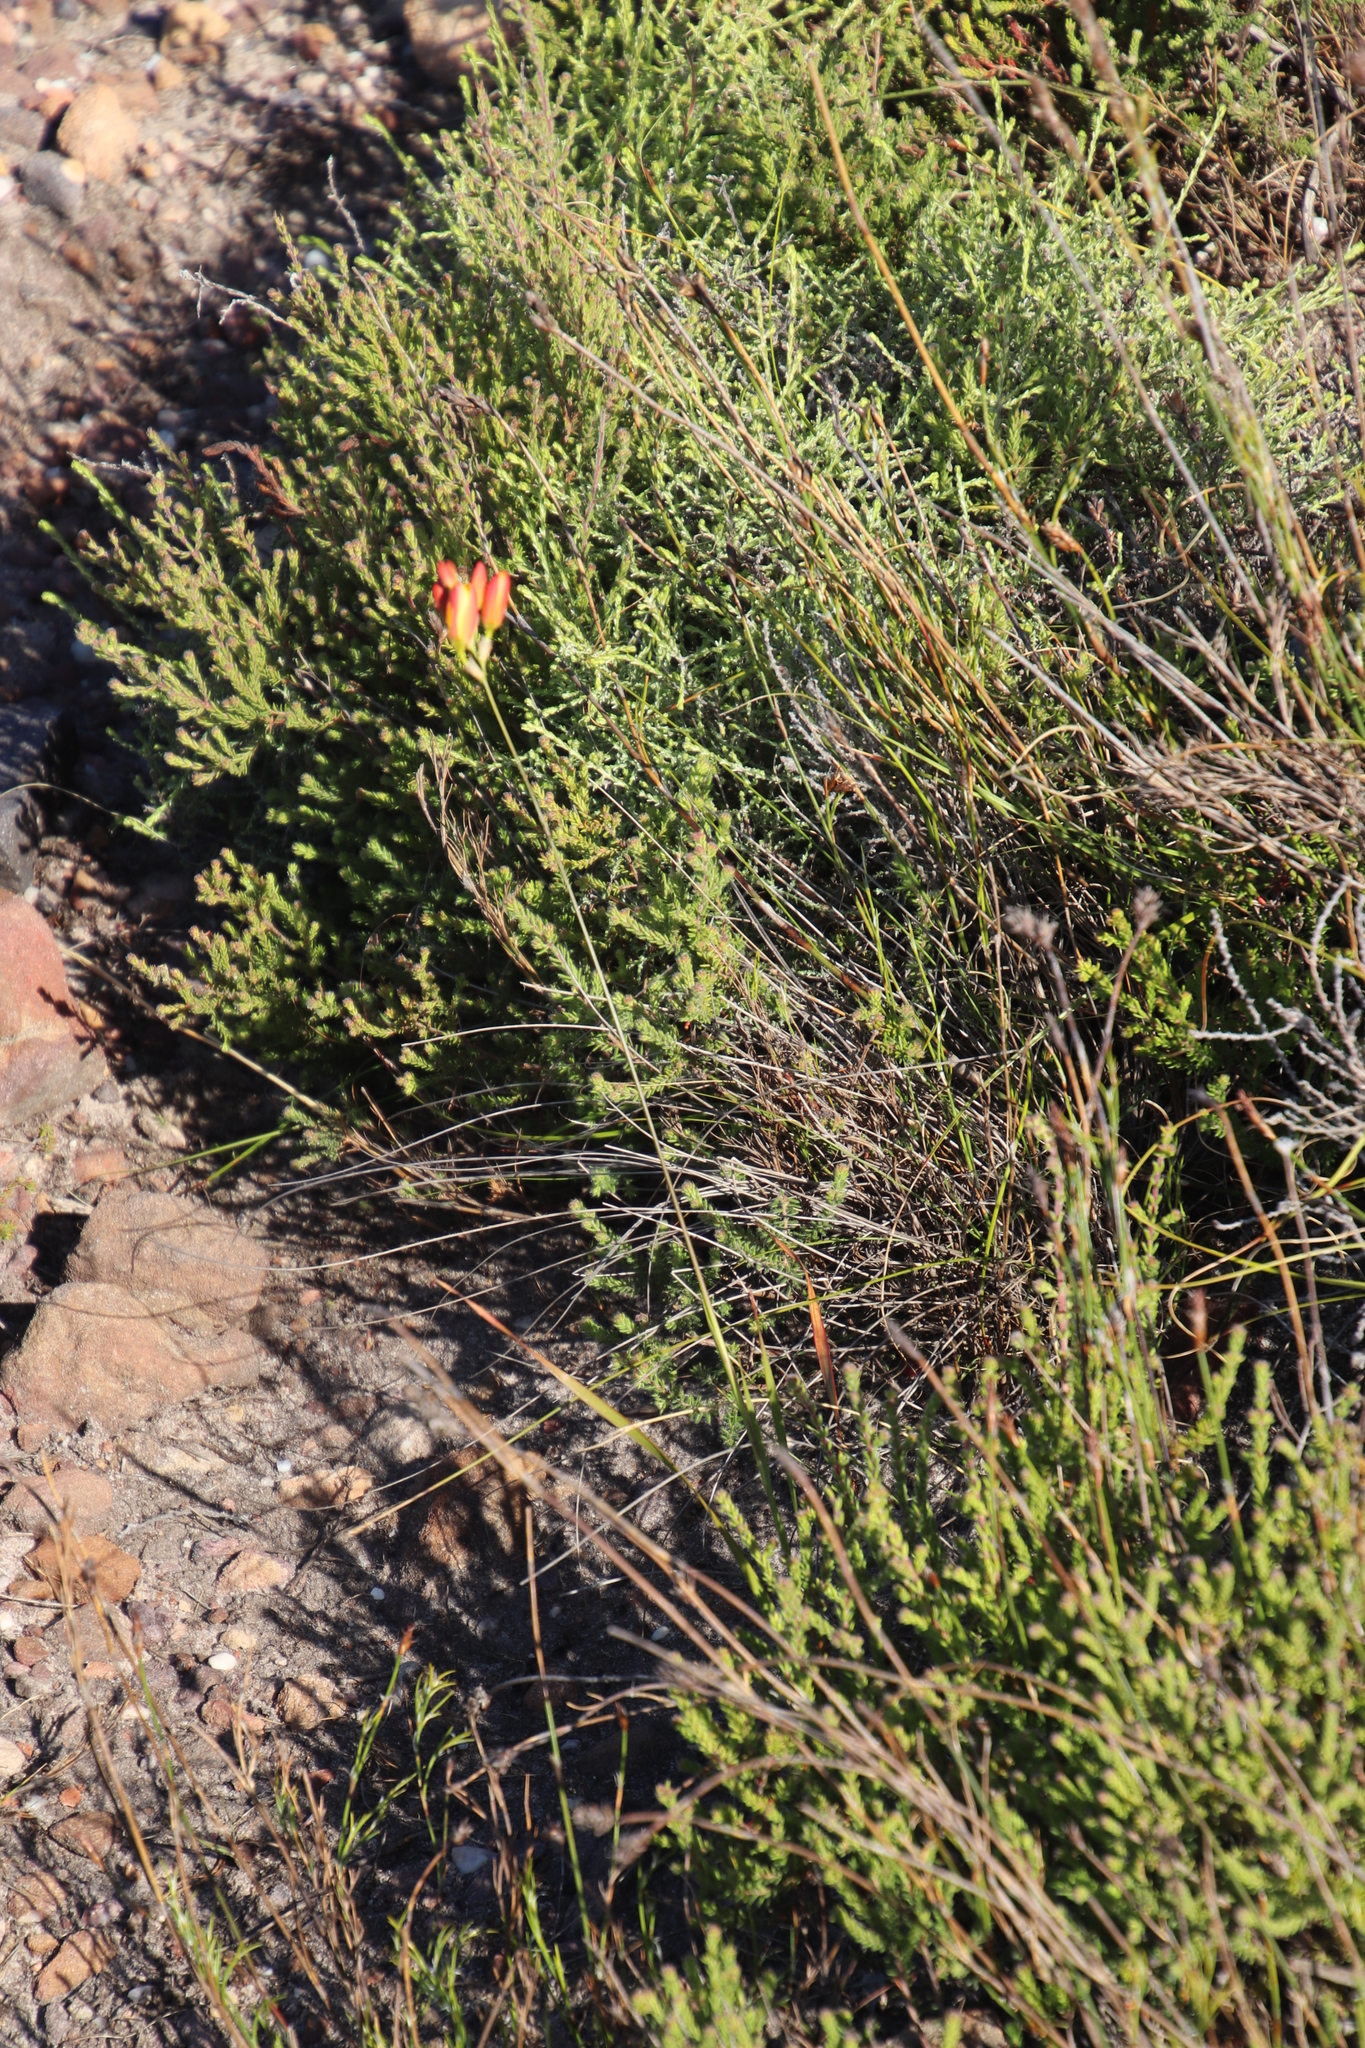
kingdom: Plantae
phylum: Tracheophyta
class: Liliopsida
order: Asparagales
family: Iridaceae
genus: Ixia
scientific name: Ixia dubia
